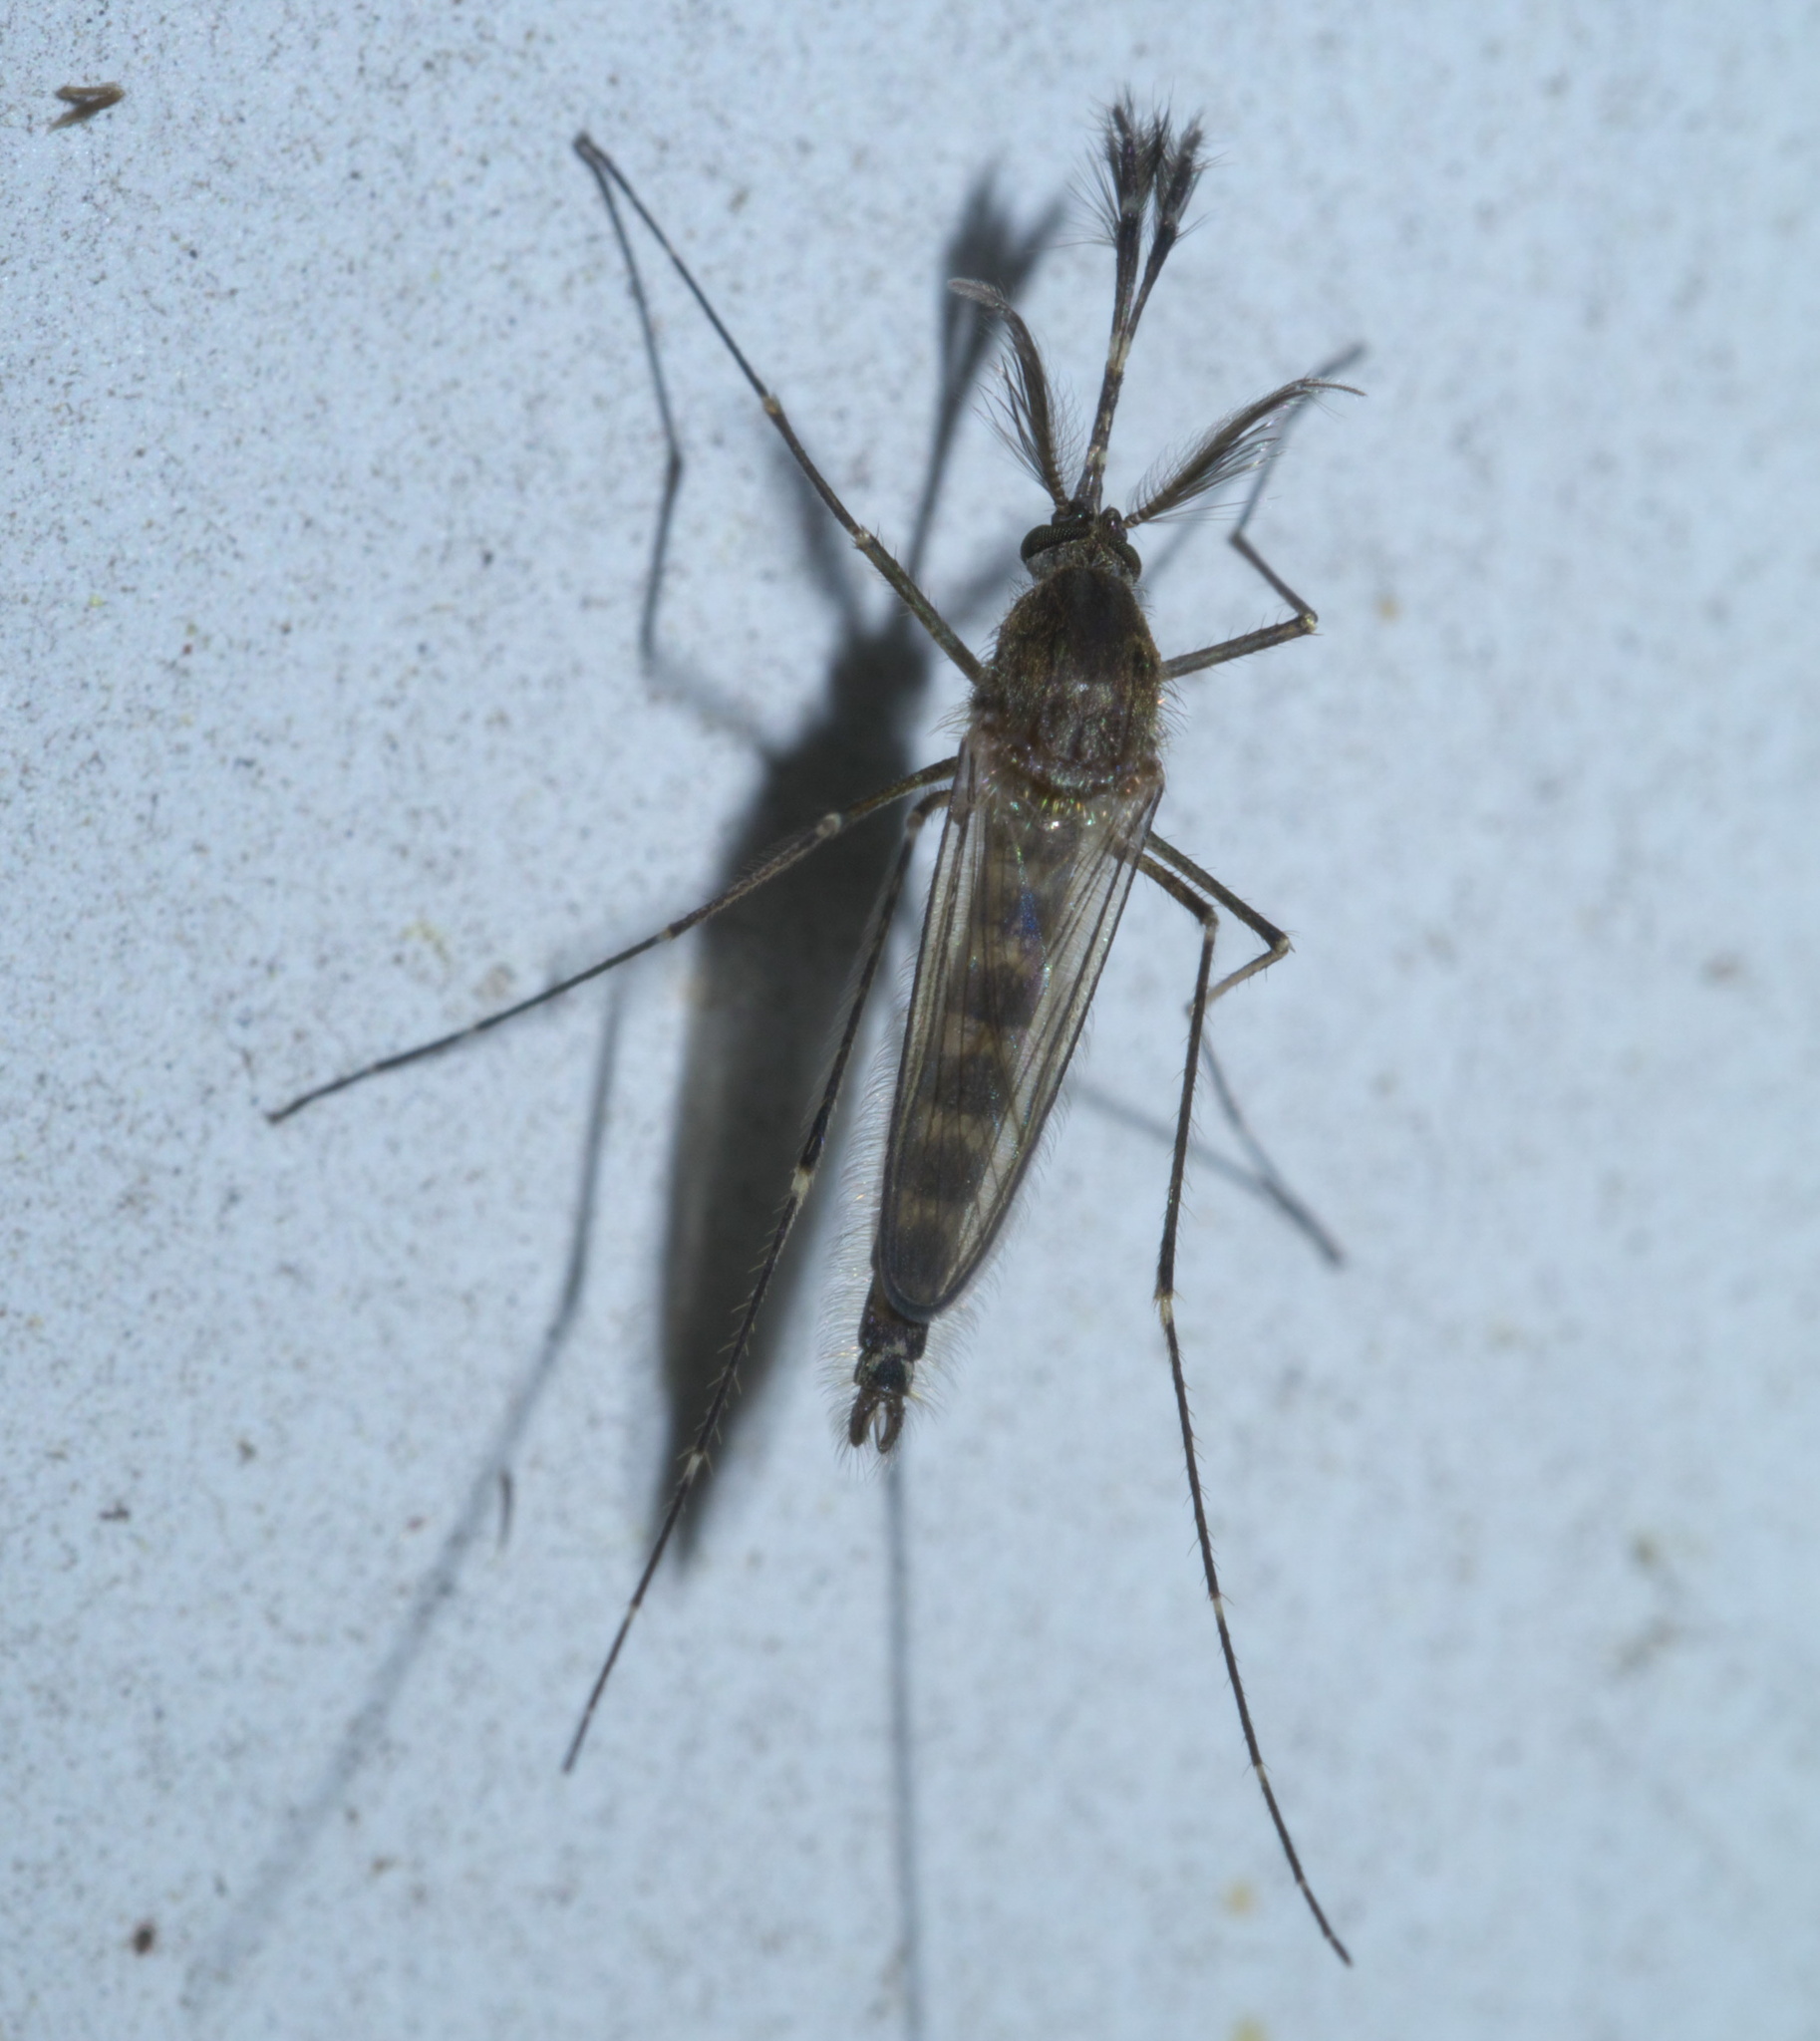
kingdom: Animalia
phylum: Arthropoda
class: Insecta
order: Diptera
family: Culicidae
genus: Aedes
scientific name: Aedes vexans
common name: Inland floodwater mosquito
